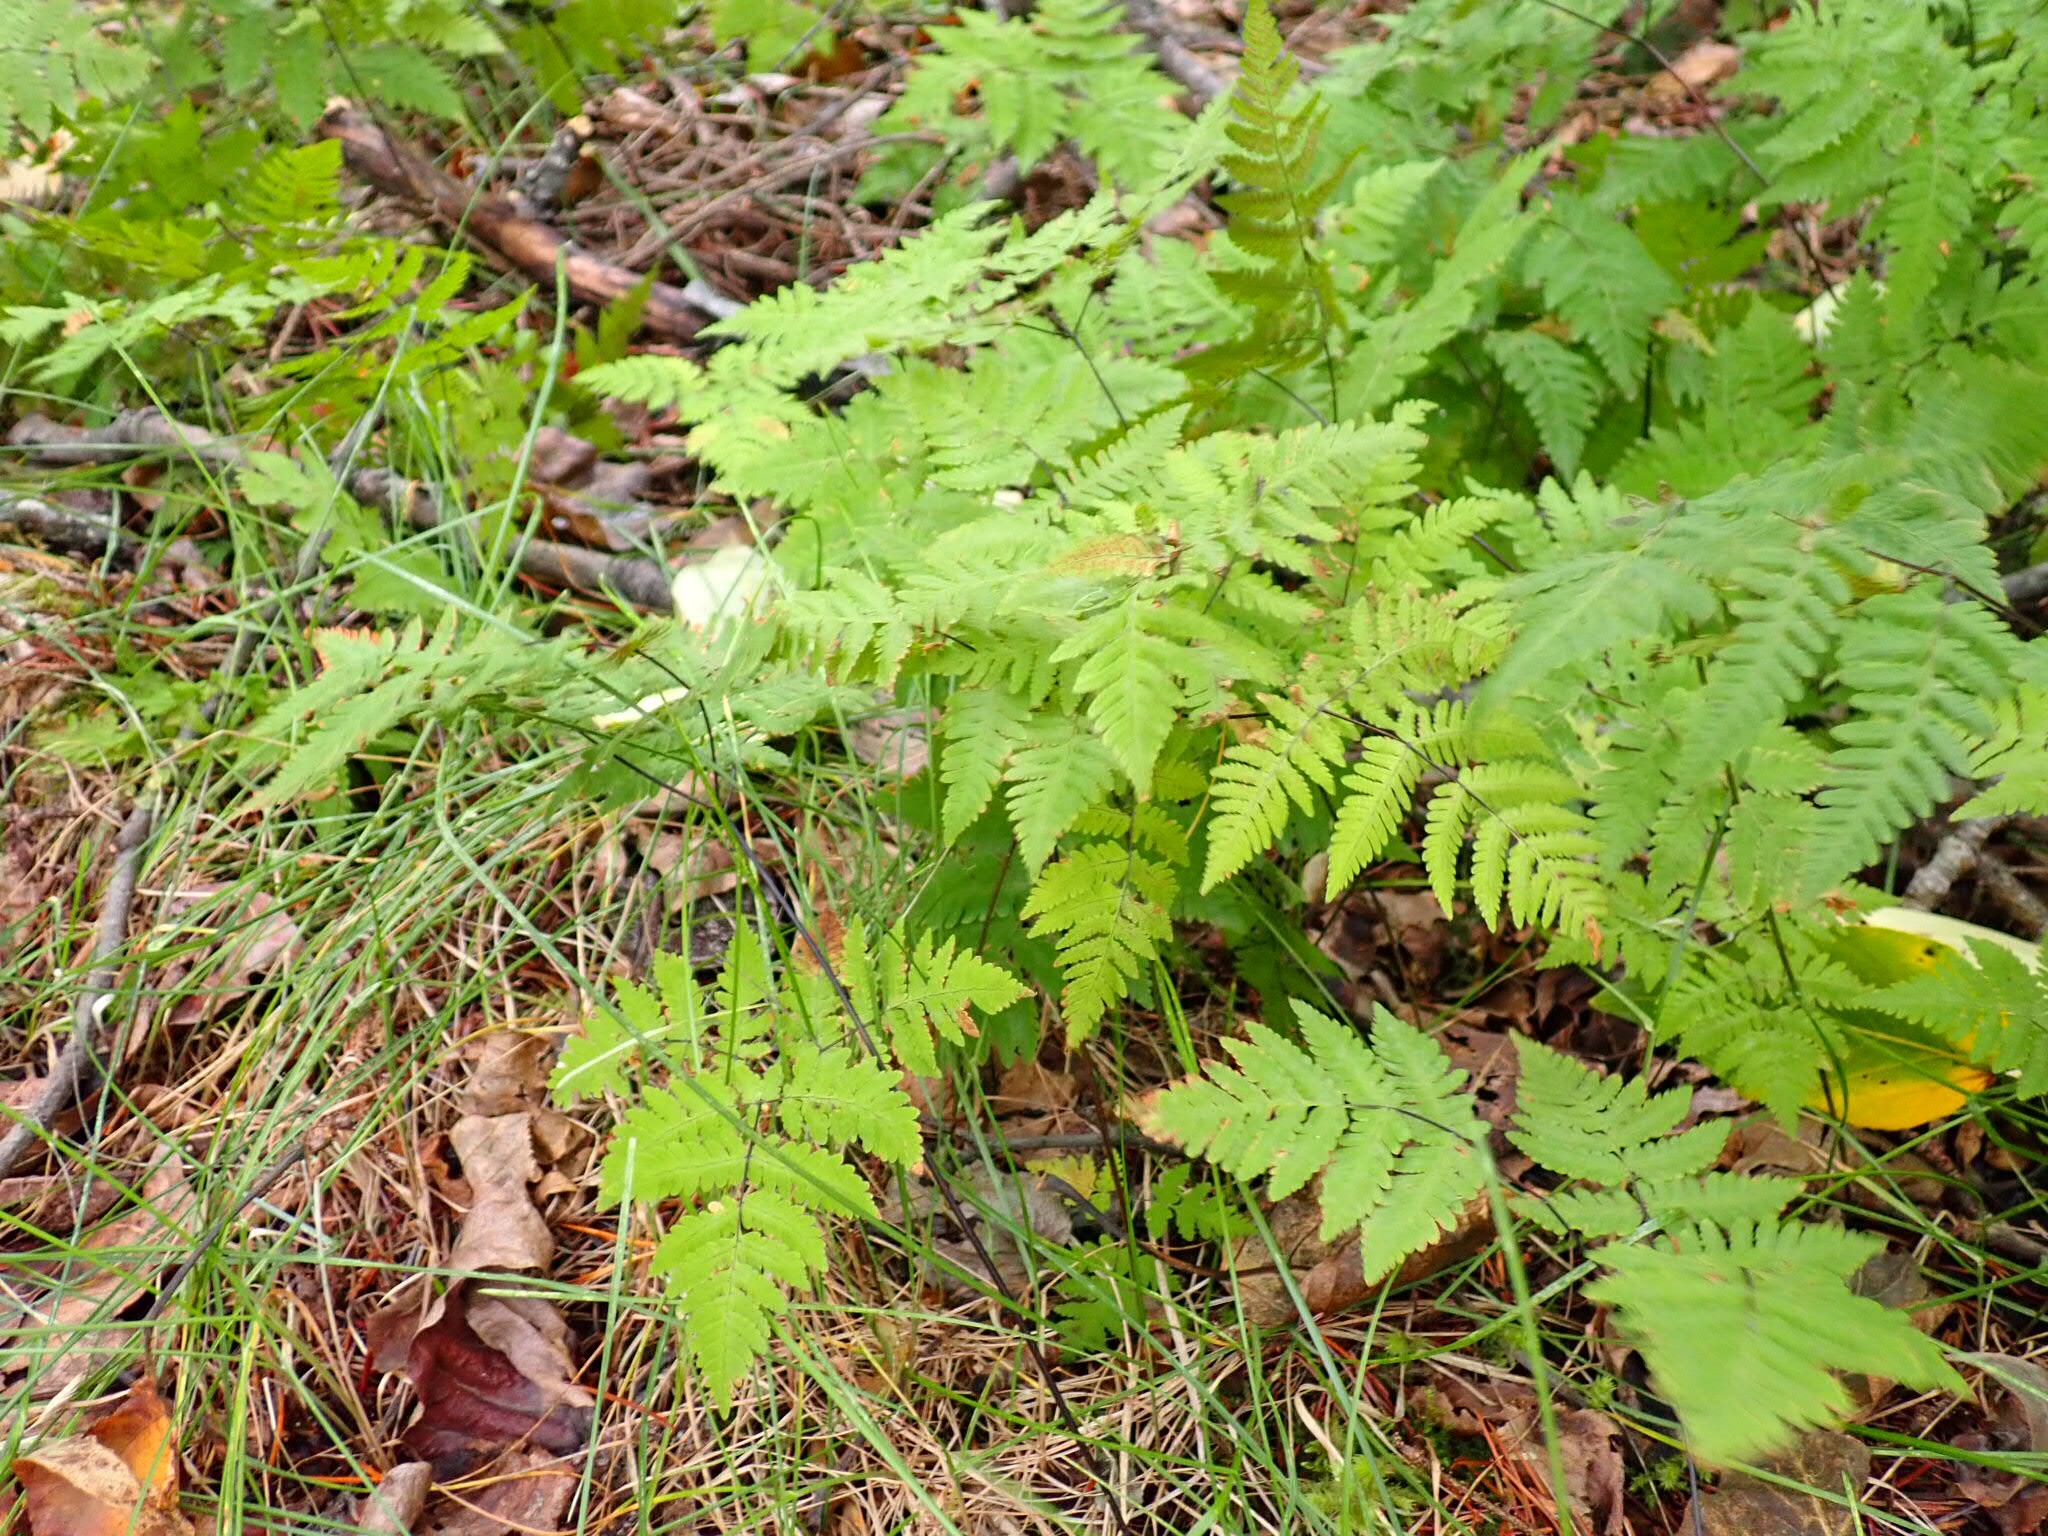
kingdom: Plantae
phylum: Tracheophyta
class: Polypodiopsida
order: Polypodiales
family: Cystopteridaceae
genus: Gymnocarpium
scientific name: Gymnocarpium disjunctum
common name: Western oak fern
